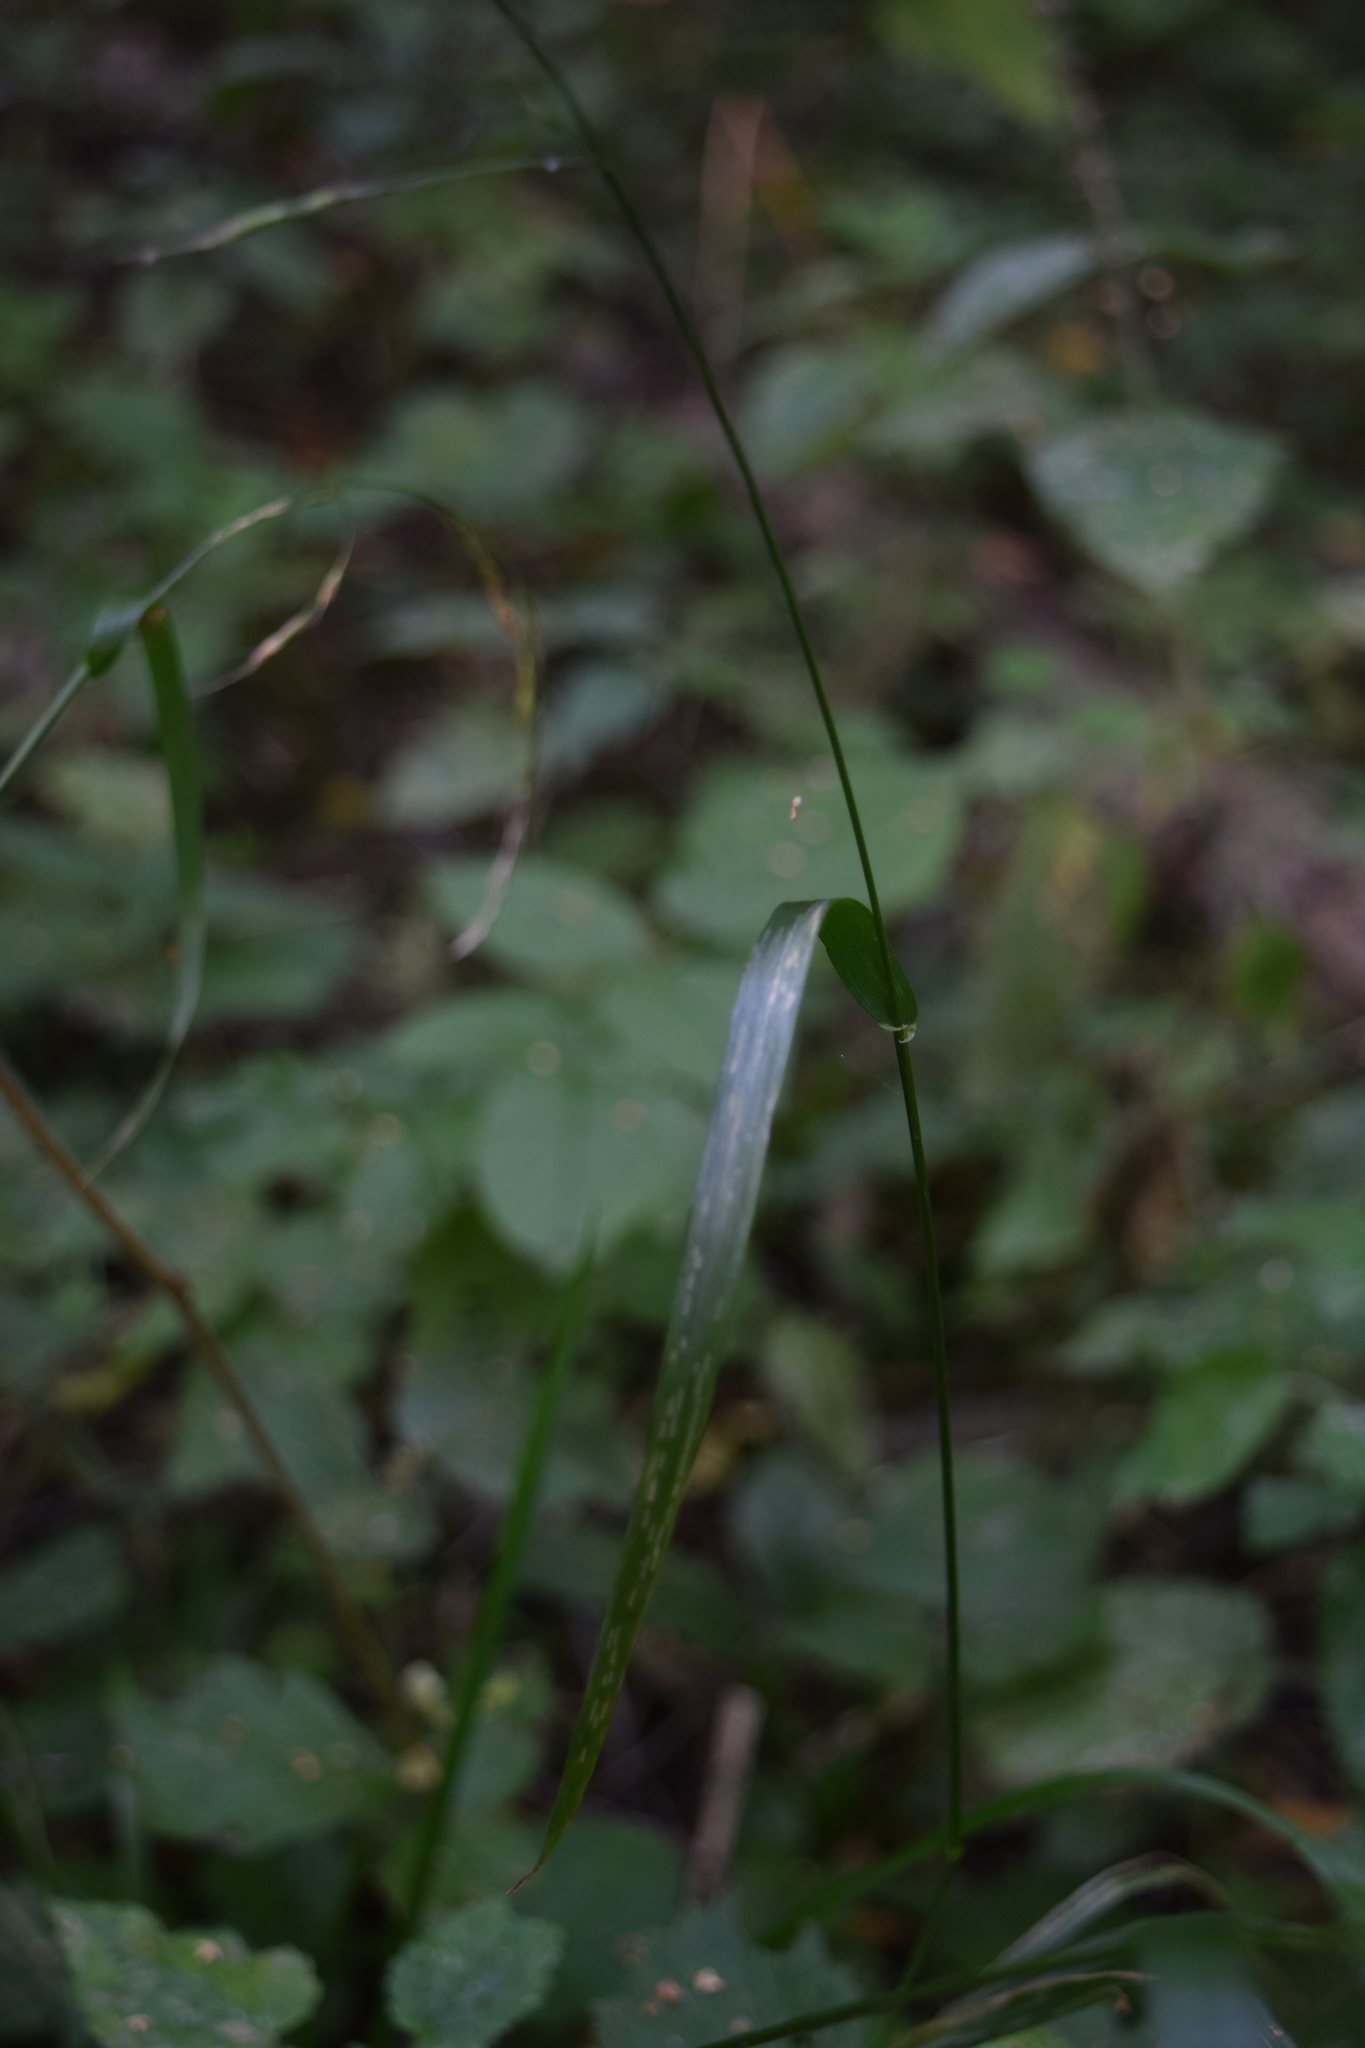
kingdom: Plantae
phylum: Tracheophyta
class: Liliopsida
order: Poales
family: Poaceae
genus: Lolium
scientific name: Lolium giganteum
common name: Giant fescue
